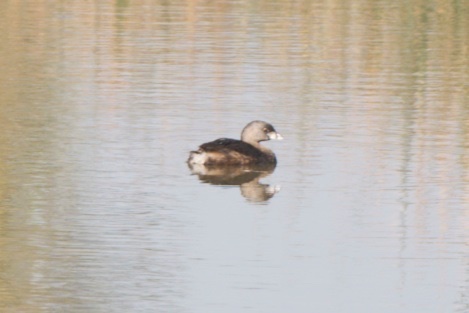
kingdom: Animalia
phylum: Chordata
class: Aves
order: Podicipediformes
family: Podicipedidae
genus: Podilymbus
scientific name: Podilymbus podiceps
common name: Pied-billed grebe
